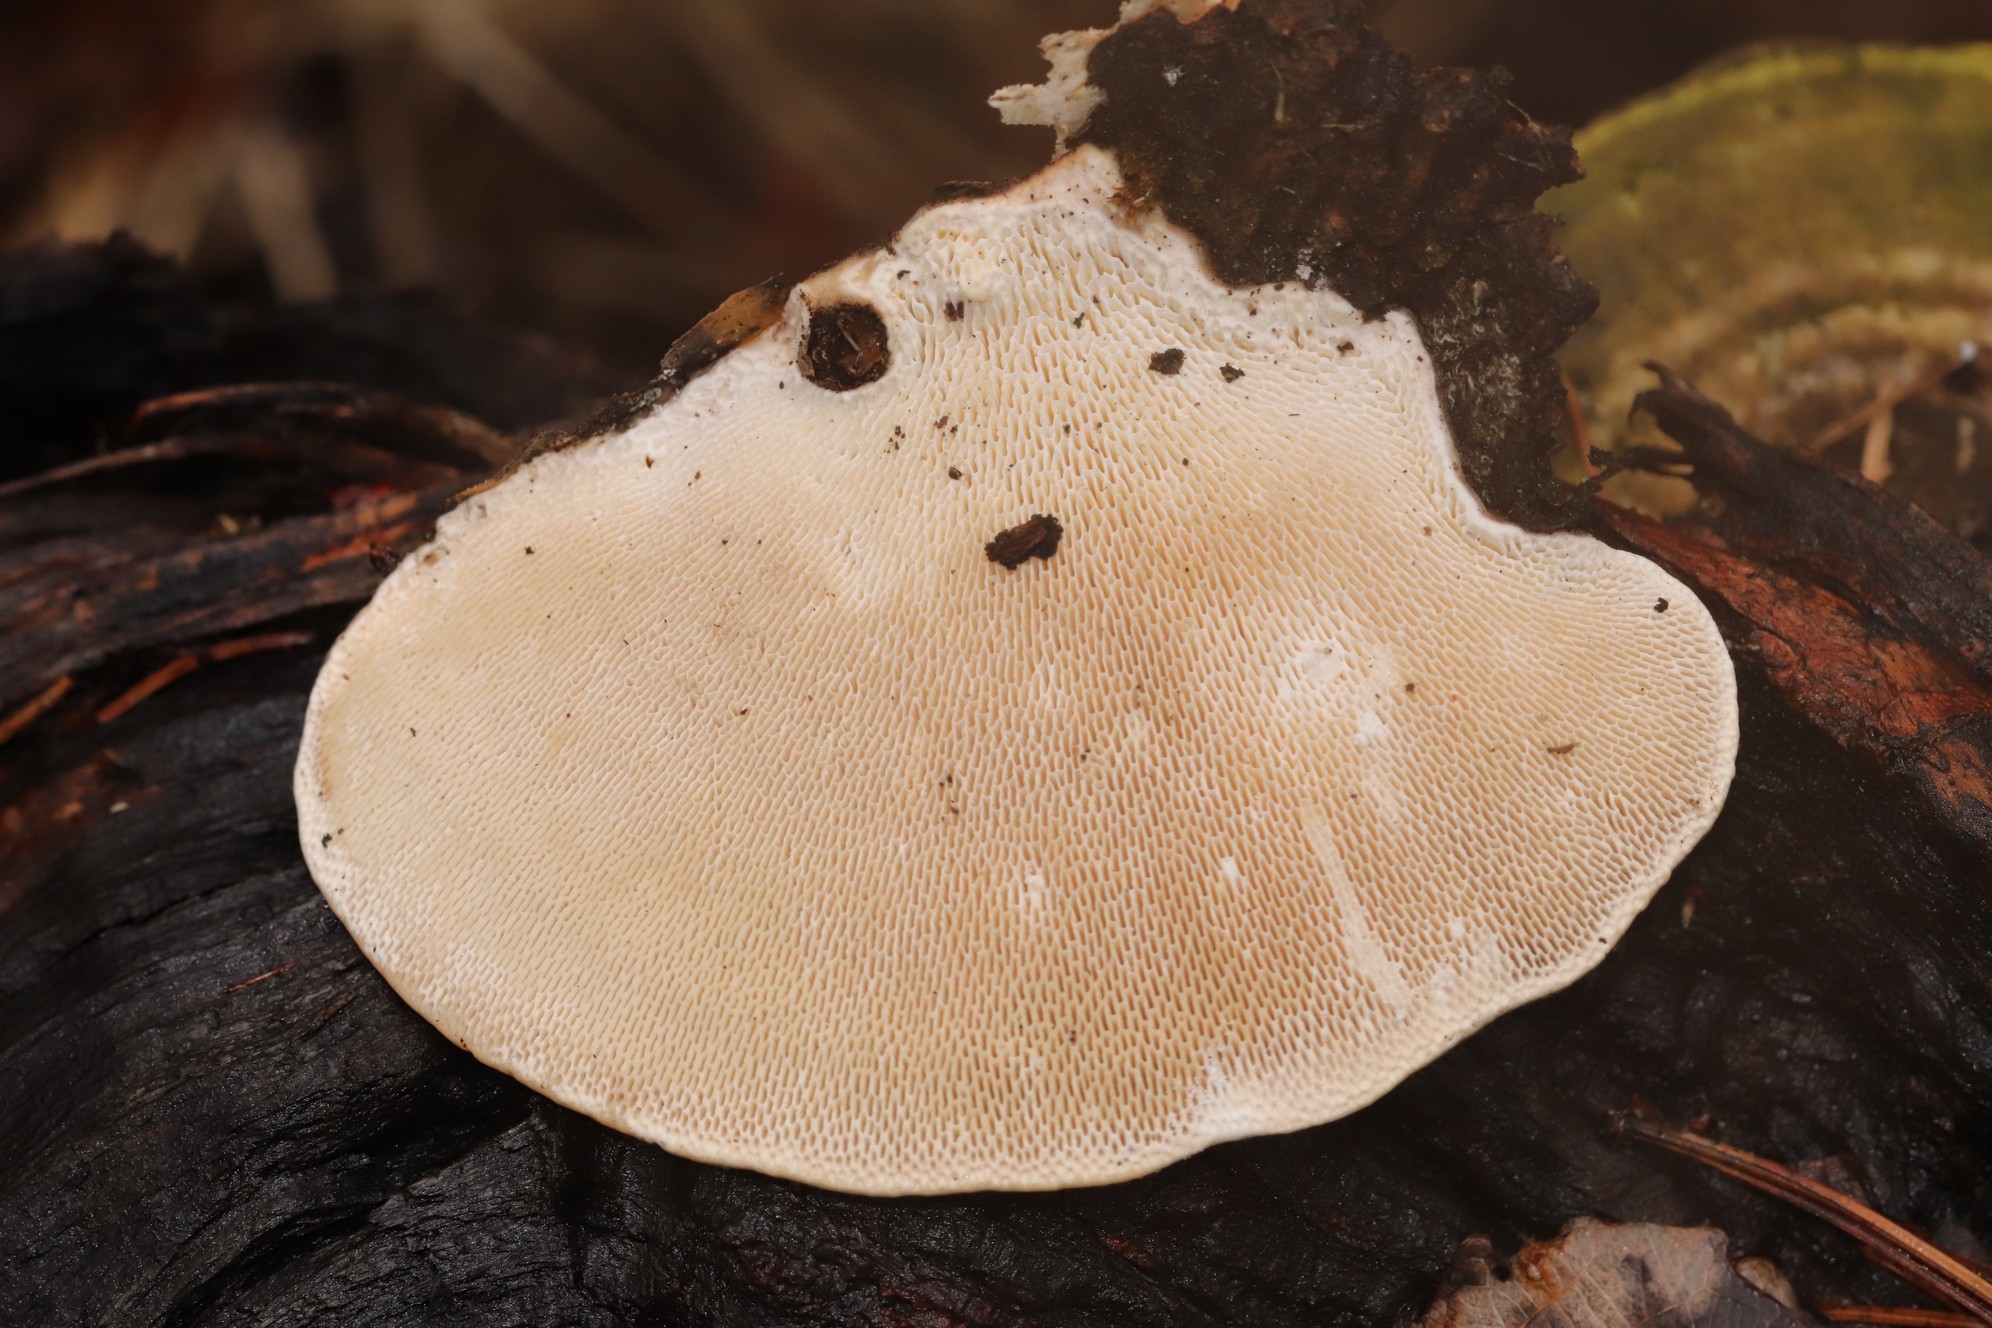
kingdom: Fungi
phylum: Basidiomycota
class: Agaricomycetes
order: Polyporales
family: Polyporaceae
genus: Trametes
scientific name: Trametes gibbosa
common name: Lumpy bracket
